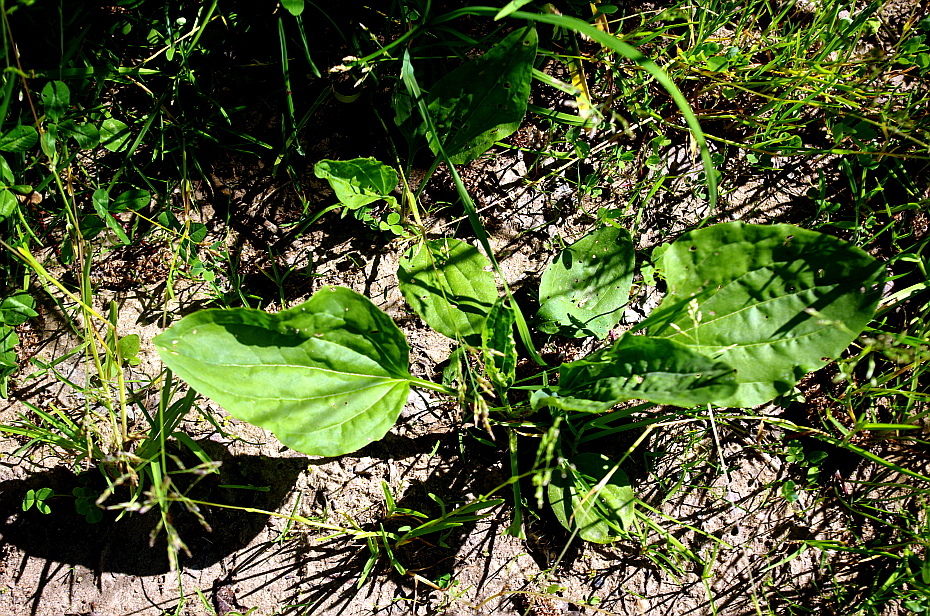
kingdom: Plantae
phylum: Tracheophyta
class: Magnoliopsida
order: Lamiales
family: Plantaginaceae
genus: Plantago
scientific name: Plantago major
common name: Common plantain
